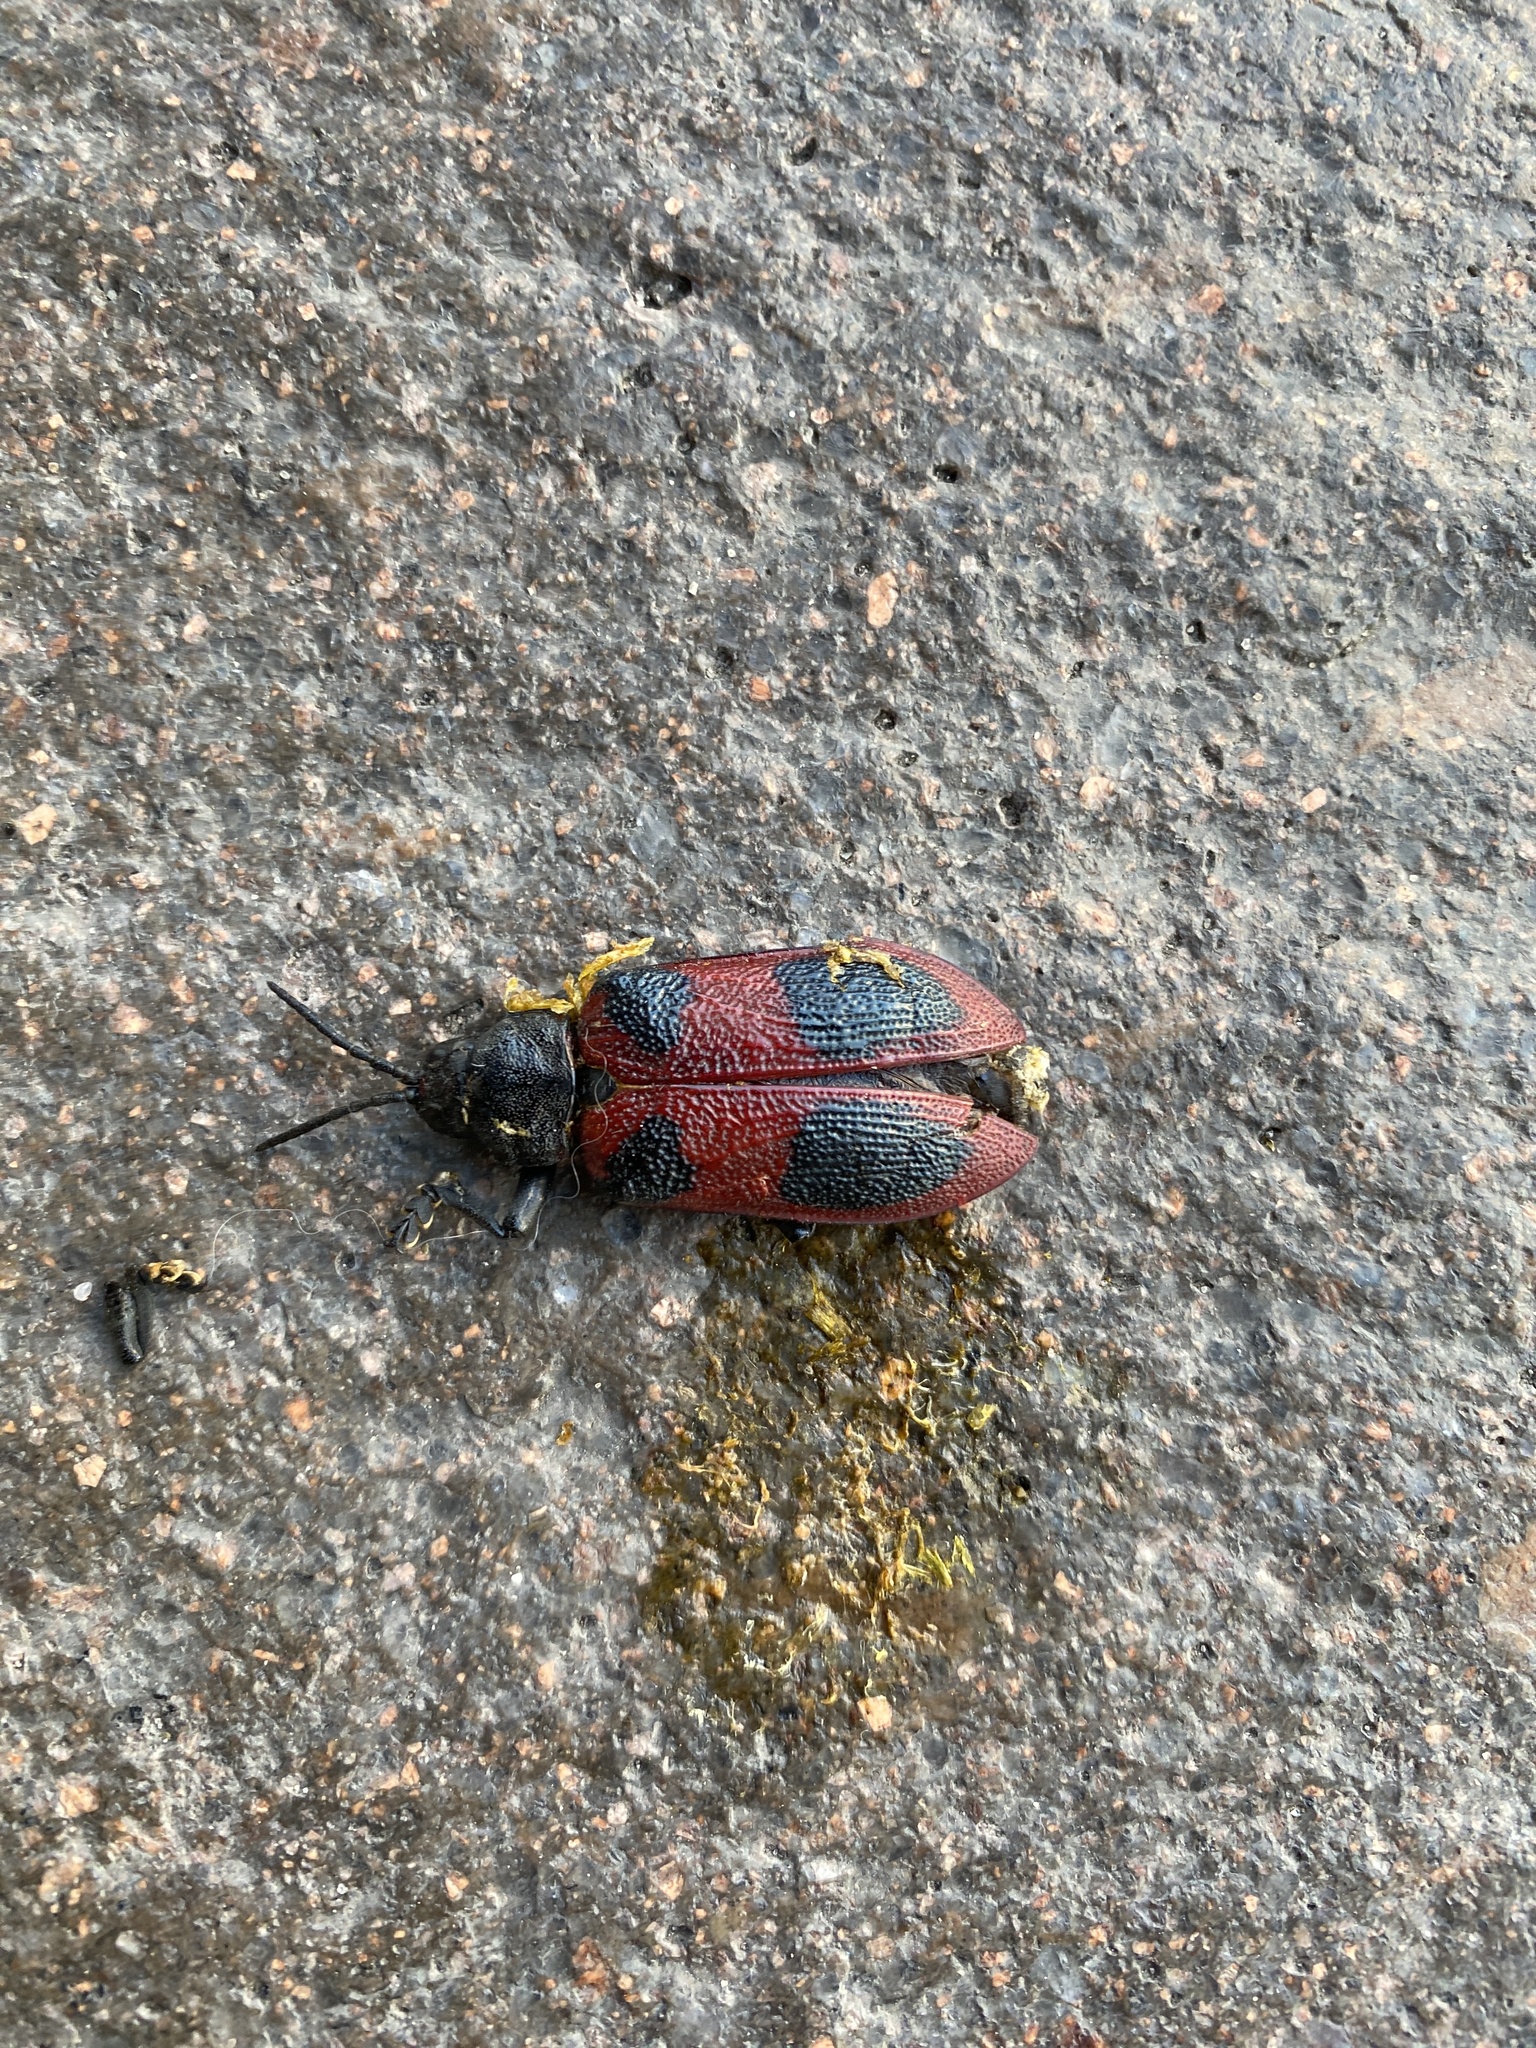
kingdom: Animalia
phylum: Arthropoda
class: Insecta
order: Coleoptera
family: Chrysomelidae
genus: Coraliomela
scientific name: Coraliomela quadrimaculata
